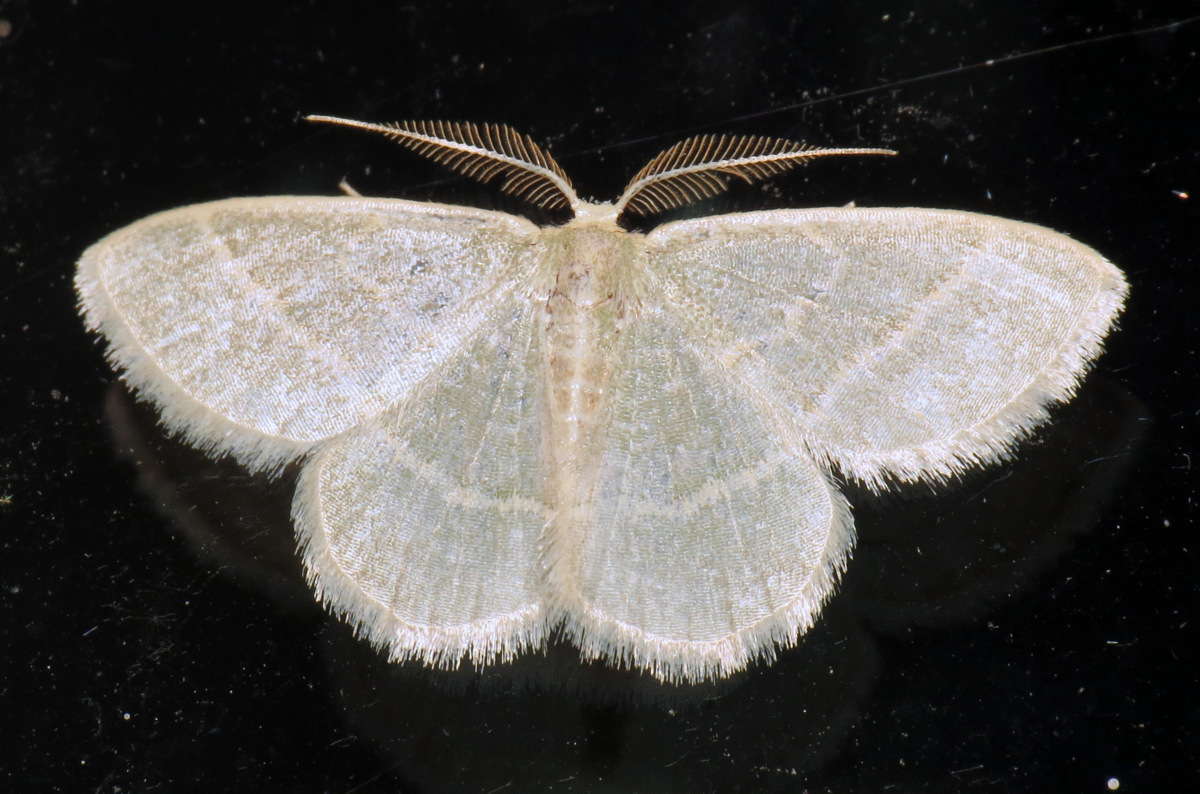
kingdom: Animalia
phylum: Arthropoda
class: Insecta
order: Lepidoptera
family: Geometridae
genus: Chlorochlamys
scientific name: Chlorochlamys chloroleucaria
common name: Blackberry looper
